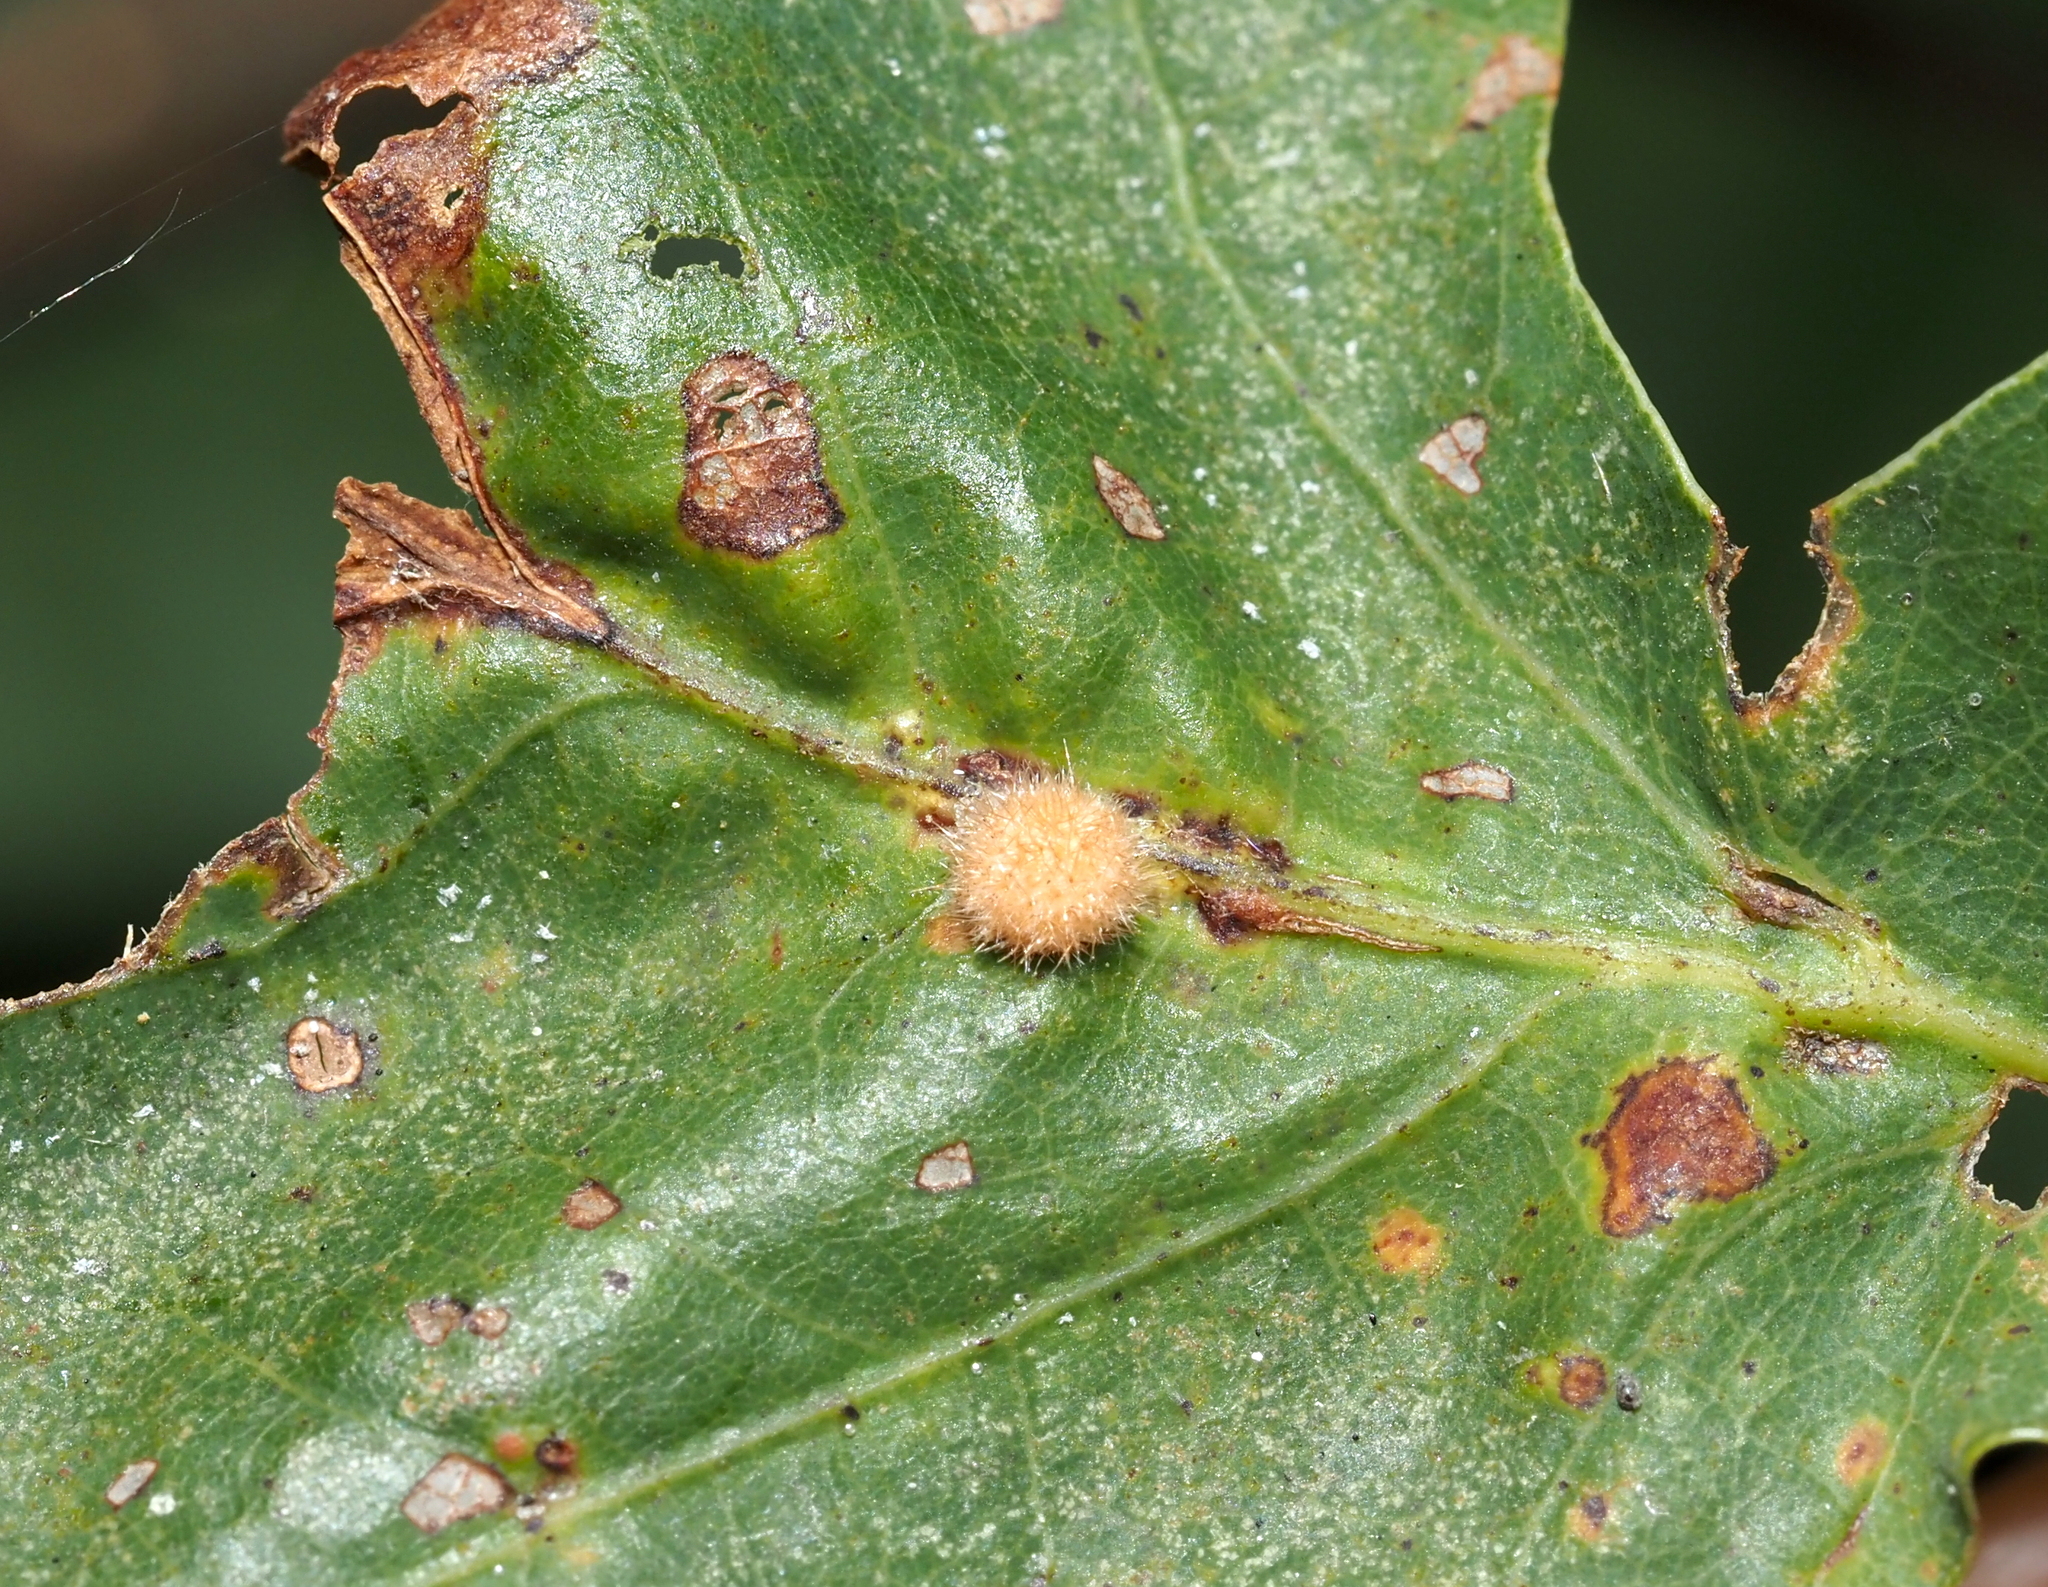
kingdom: Animalia
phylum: Arthropoda
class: Insecta
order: Hymenoptera
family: Cynipidae
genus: Philonix
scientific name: Philonix fulvicollis
